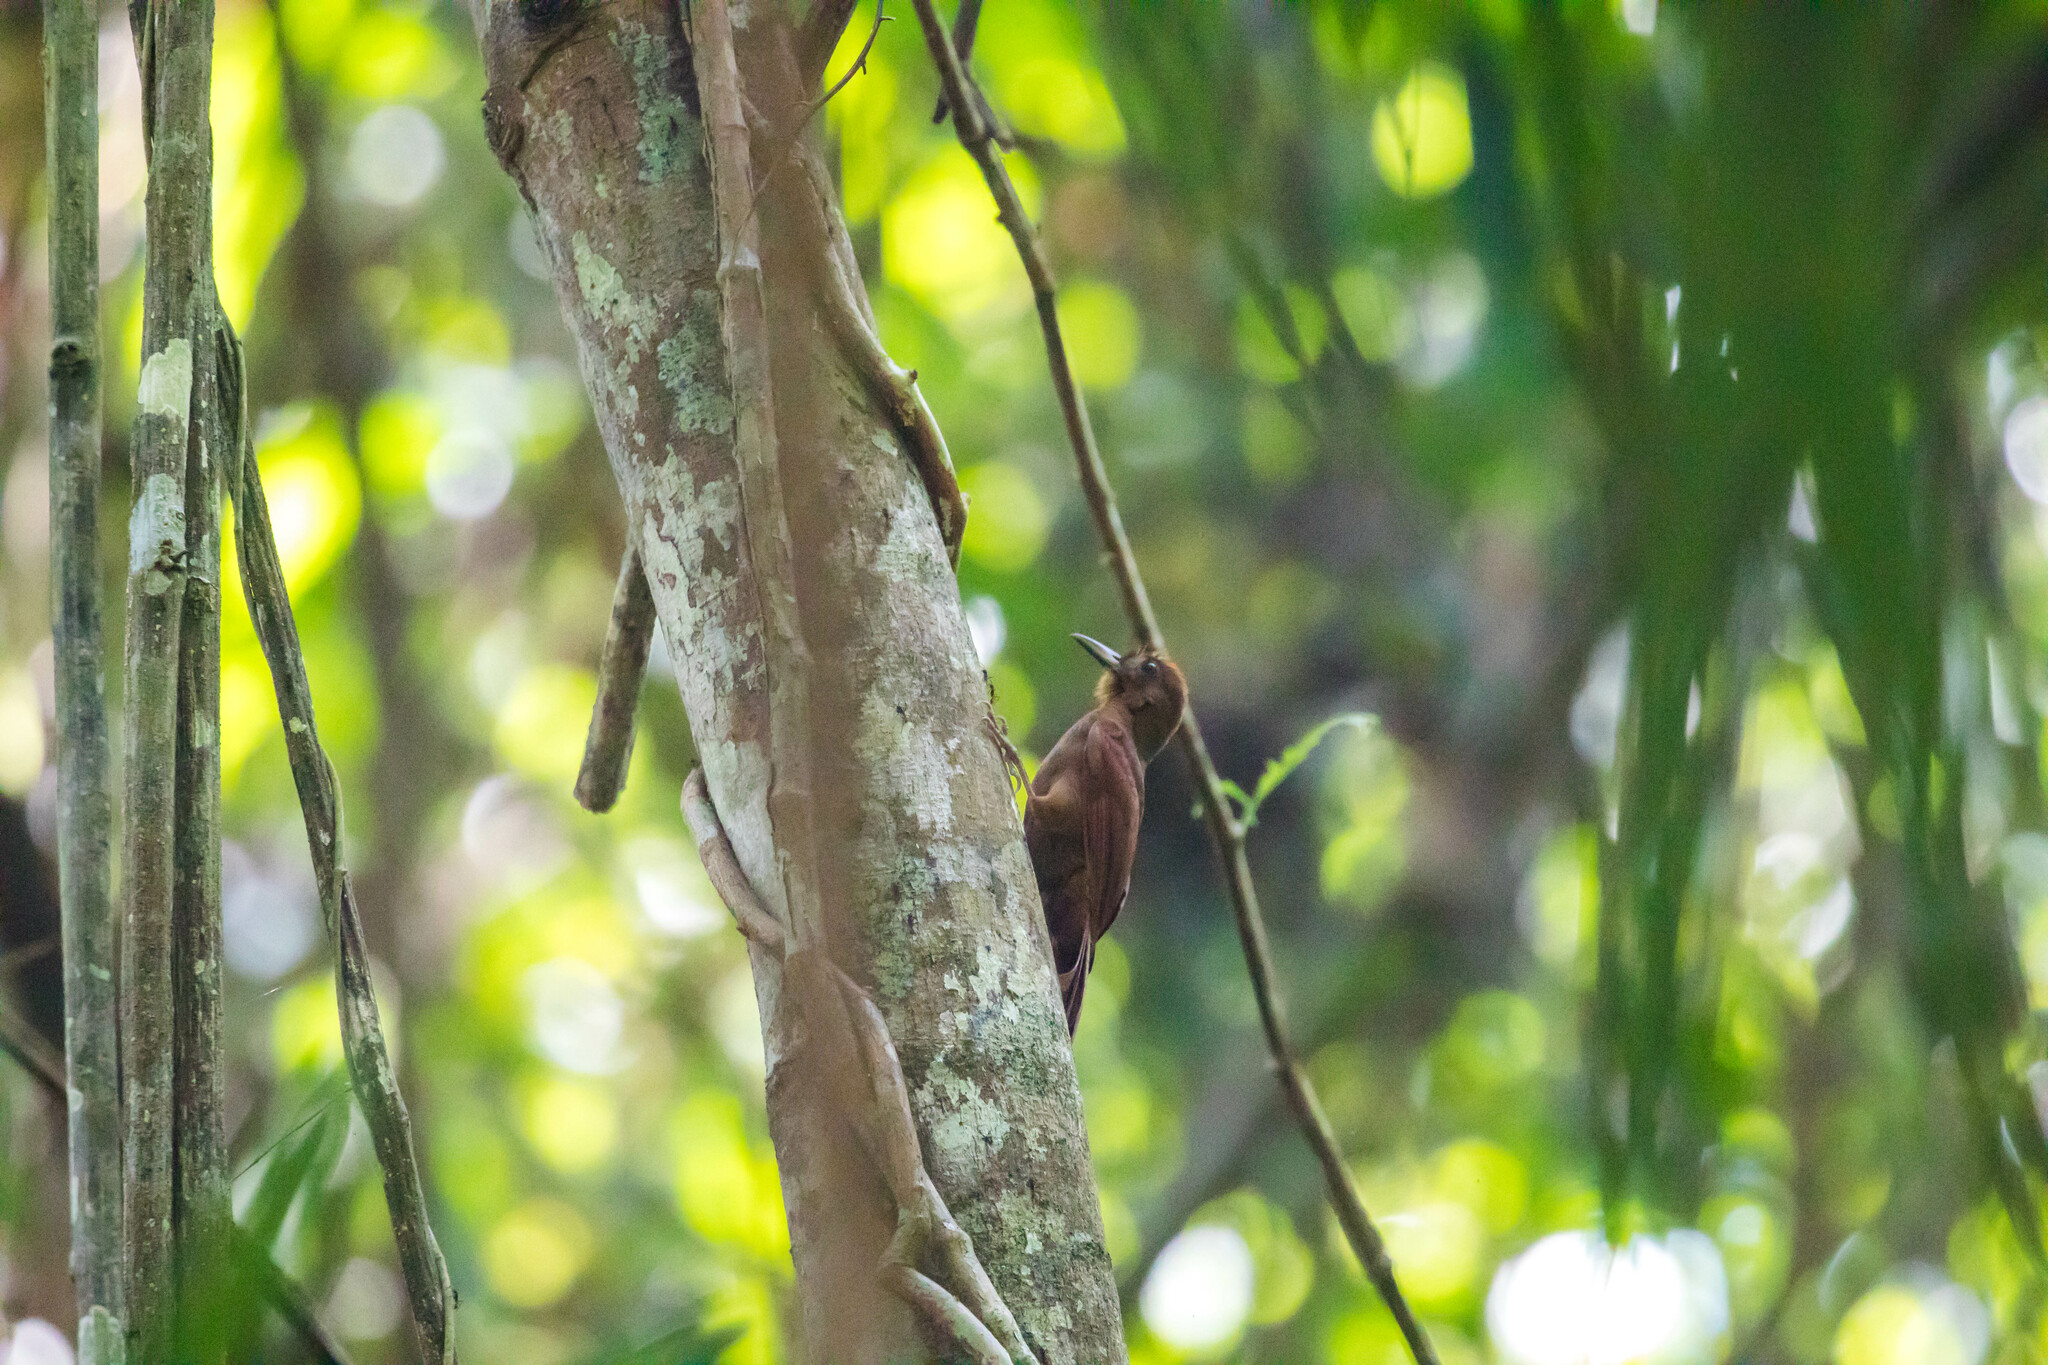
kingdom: Animalia
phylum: Chordata
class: Aves
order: Passeriformes
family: Furnariidae
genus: Dendrocincla
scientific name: Dendrocincla homochroa
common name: Ruddy woodcreeper
